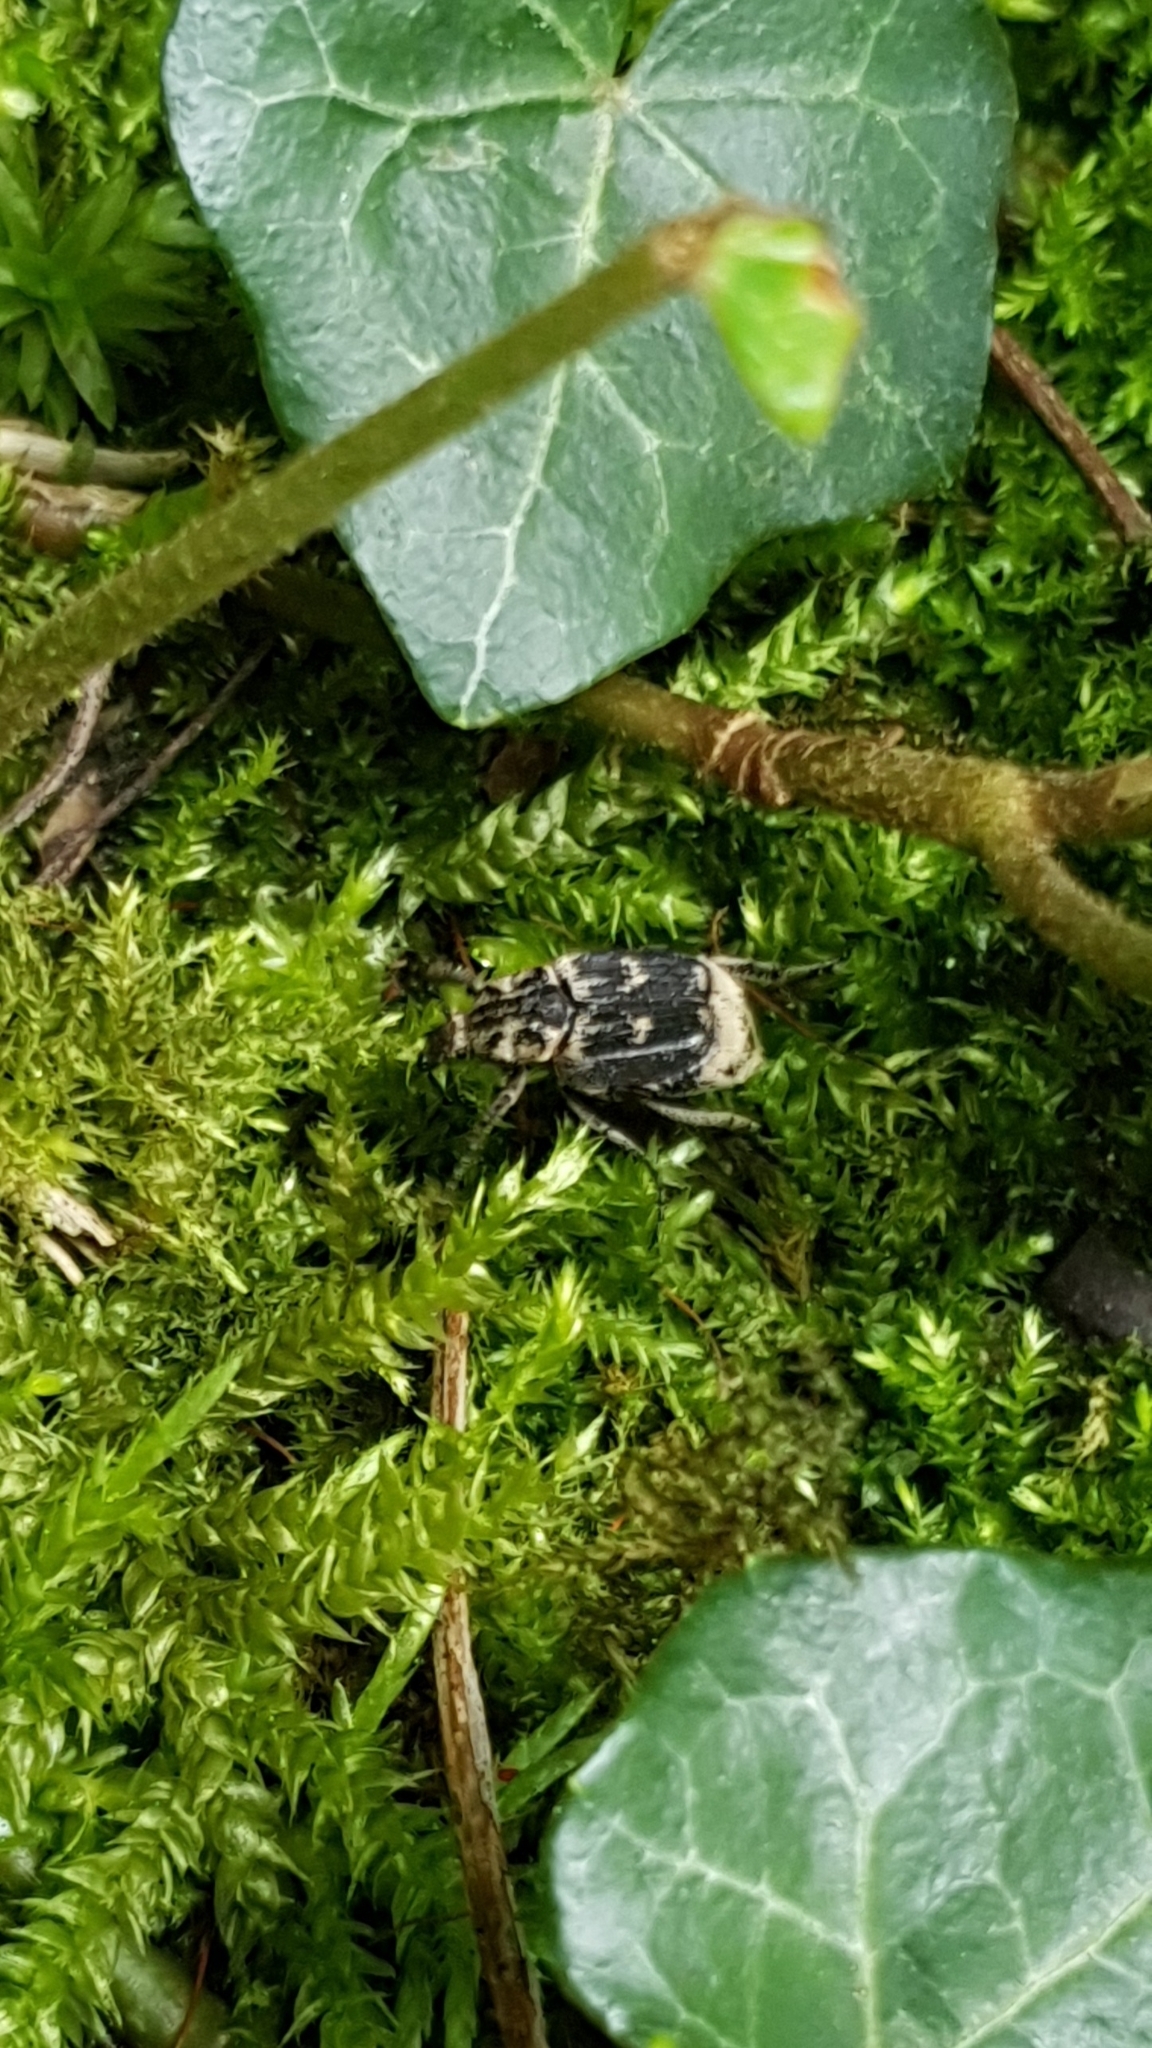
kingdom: Animalia
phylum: Arthropoda
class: Insecta
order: Coleoptera
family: Scarabaeidae
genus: Valgus
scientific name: Valgus hemipterus
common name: Bug flower chafer
